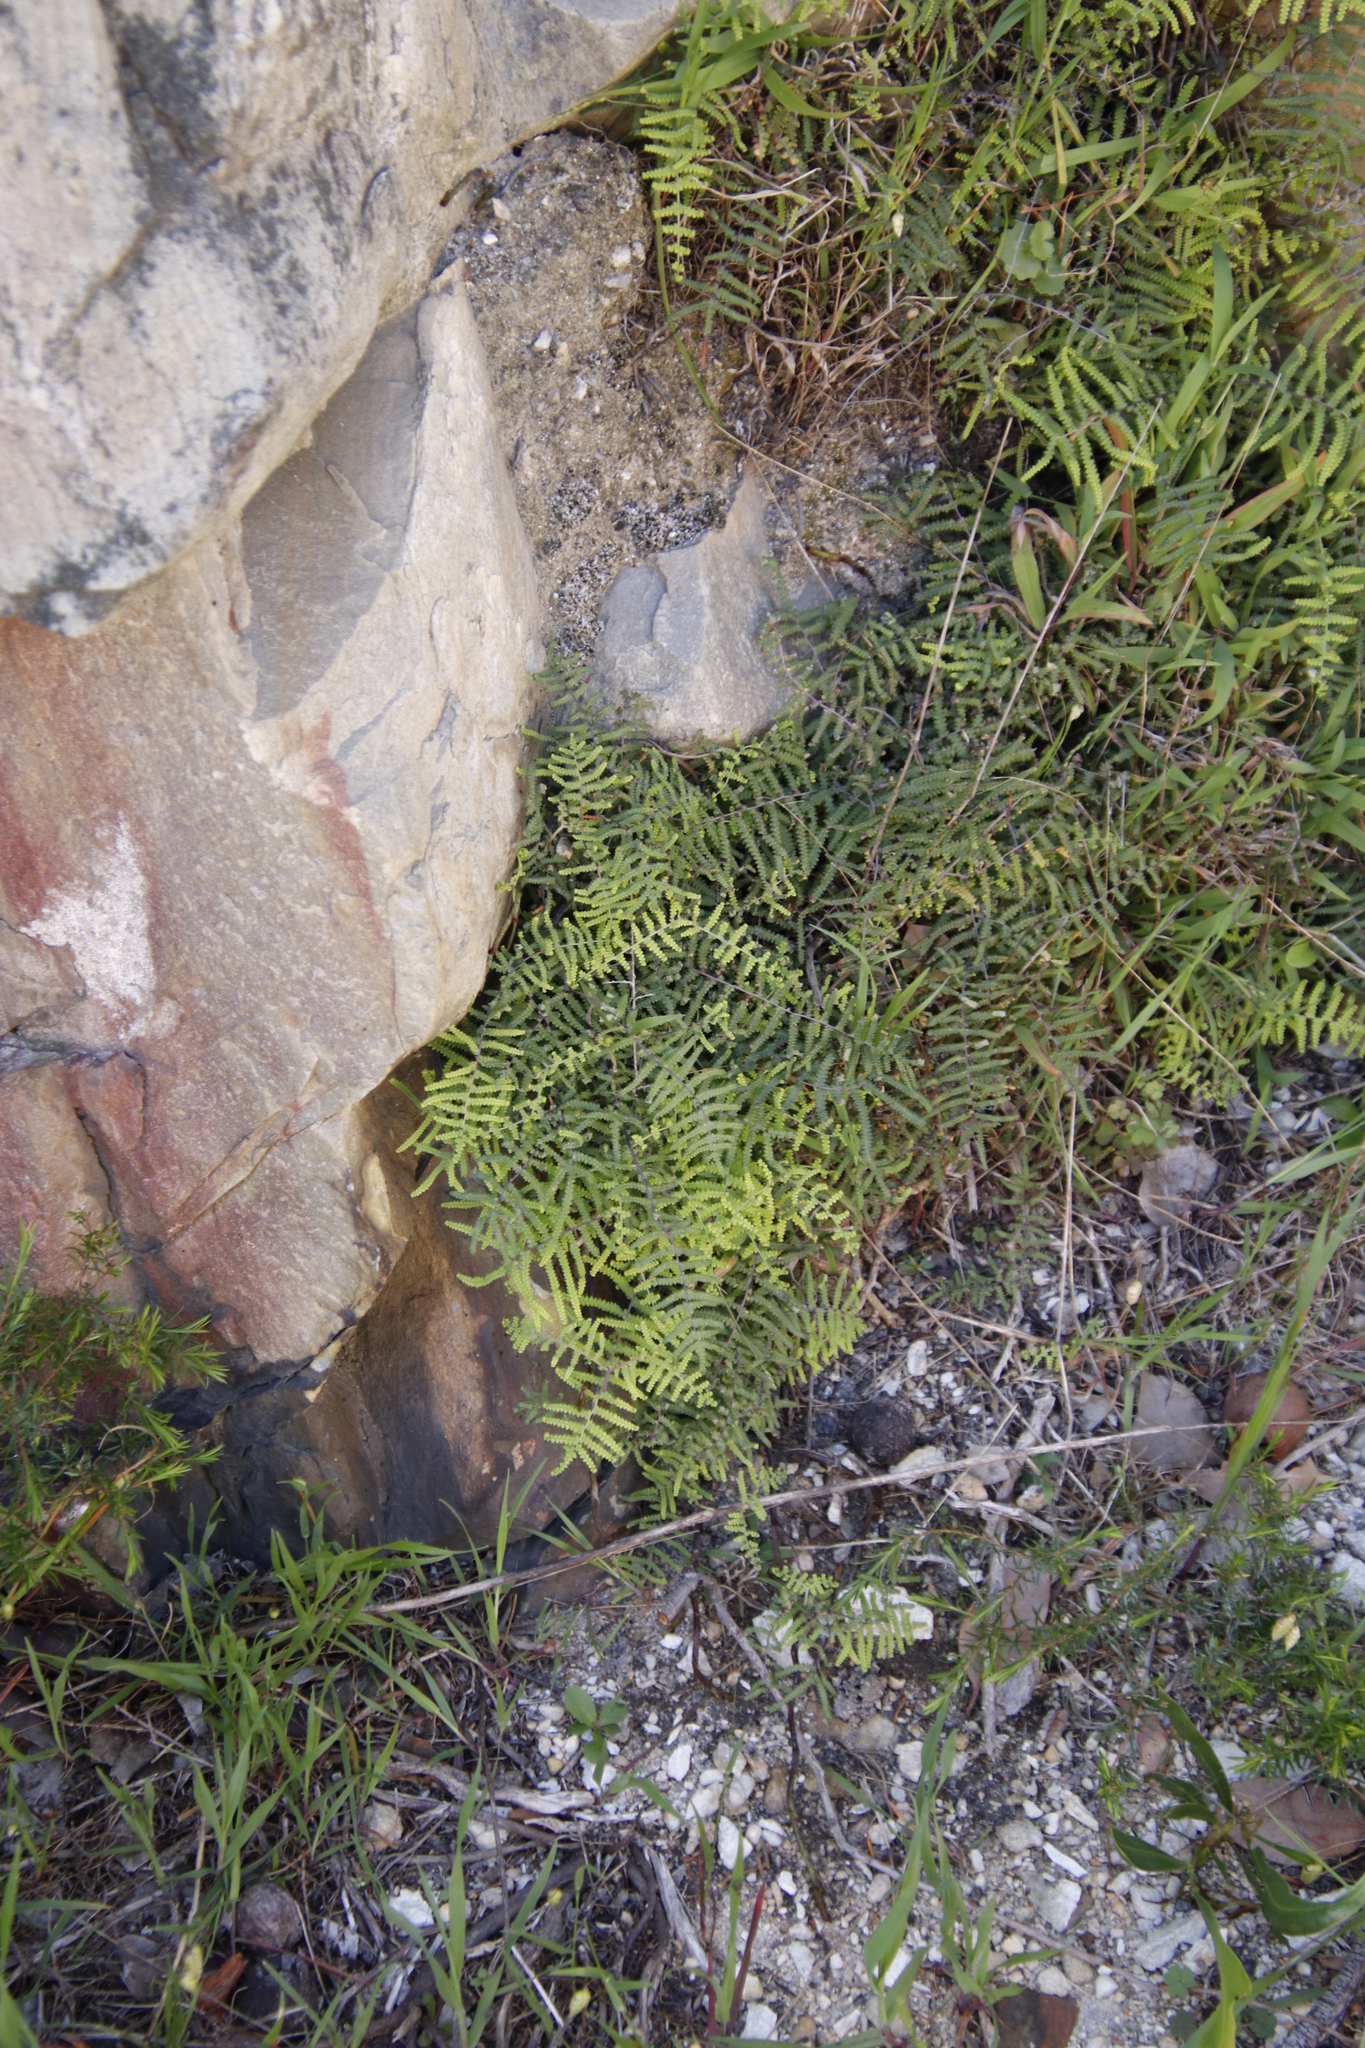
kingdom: Plantae
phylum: Tracheophyta
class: Polypodiopsida
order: Gleicheniales
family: Gleicheniaceae
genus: Gleichenia
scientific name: Gleichenia polypodioides
